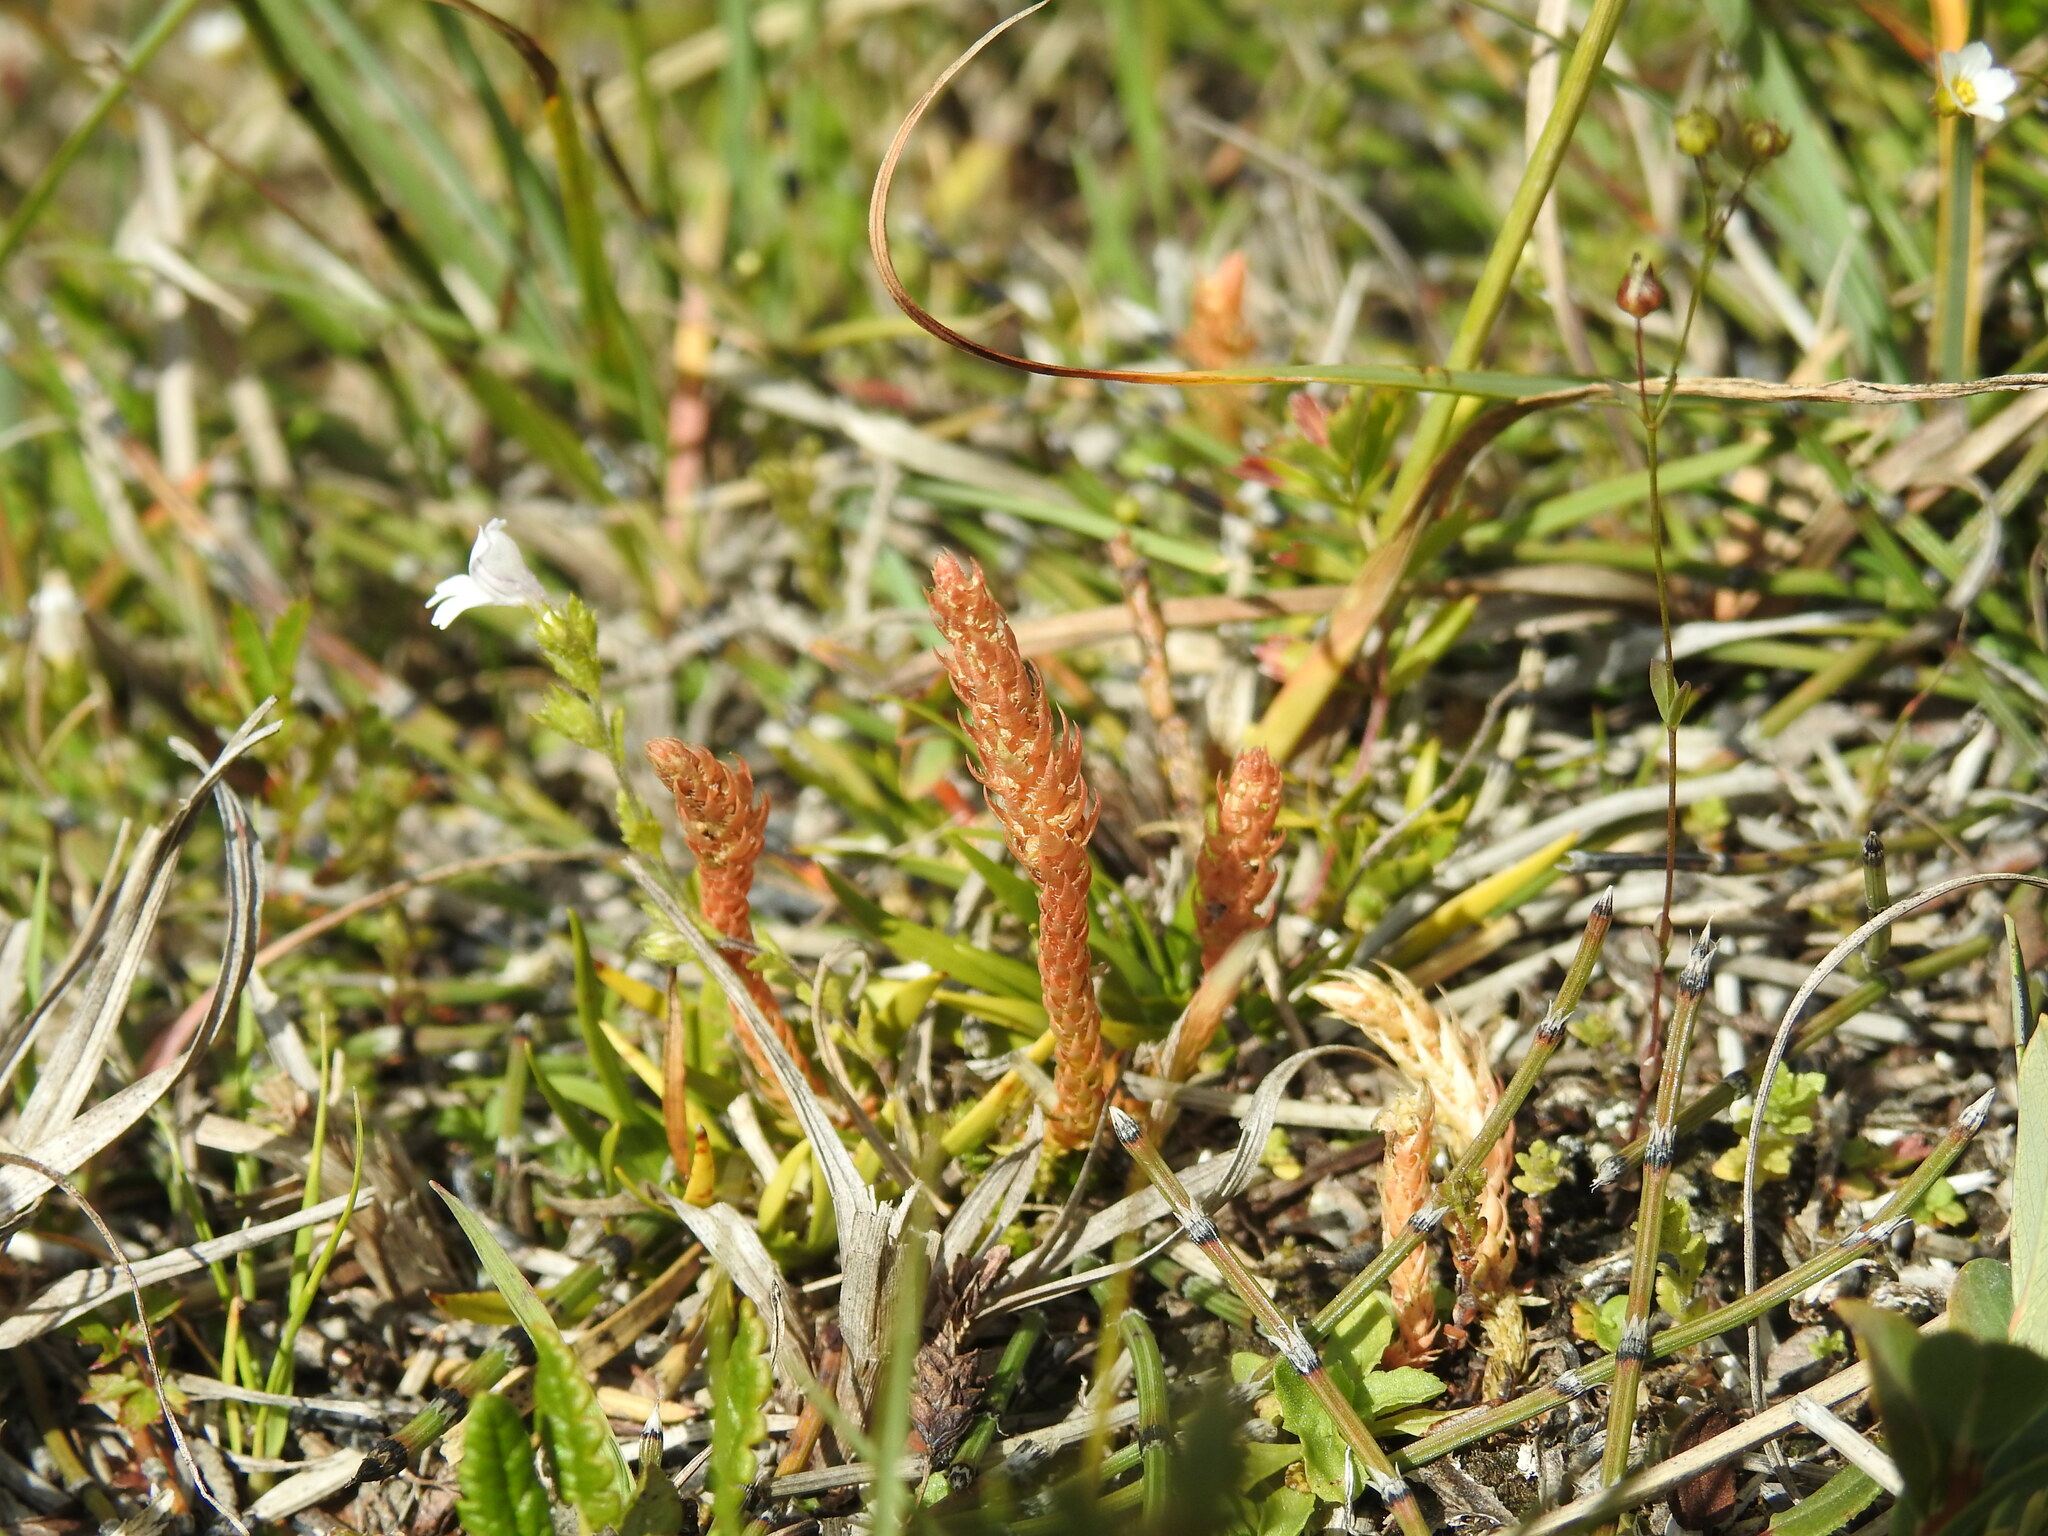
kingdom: Plantae
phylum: Tracheophyta
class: Lycopodiopsida
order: Selaginellales
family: Selaginellaceae
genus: Selaginella
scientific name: Selaginella selaginoides
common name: Prickly mountain-moss
